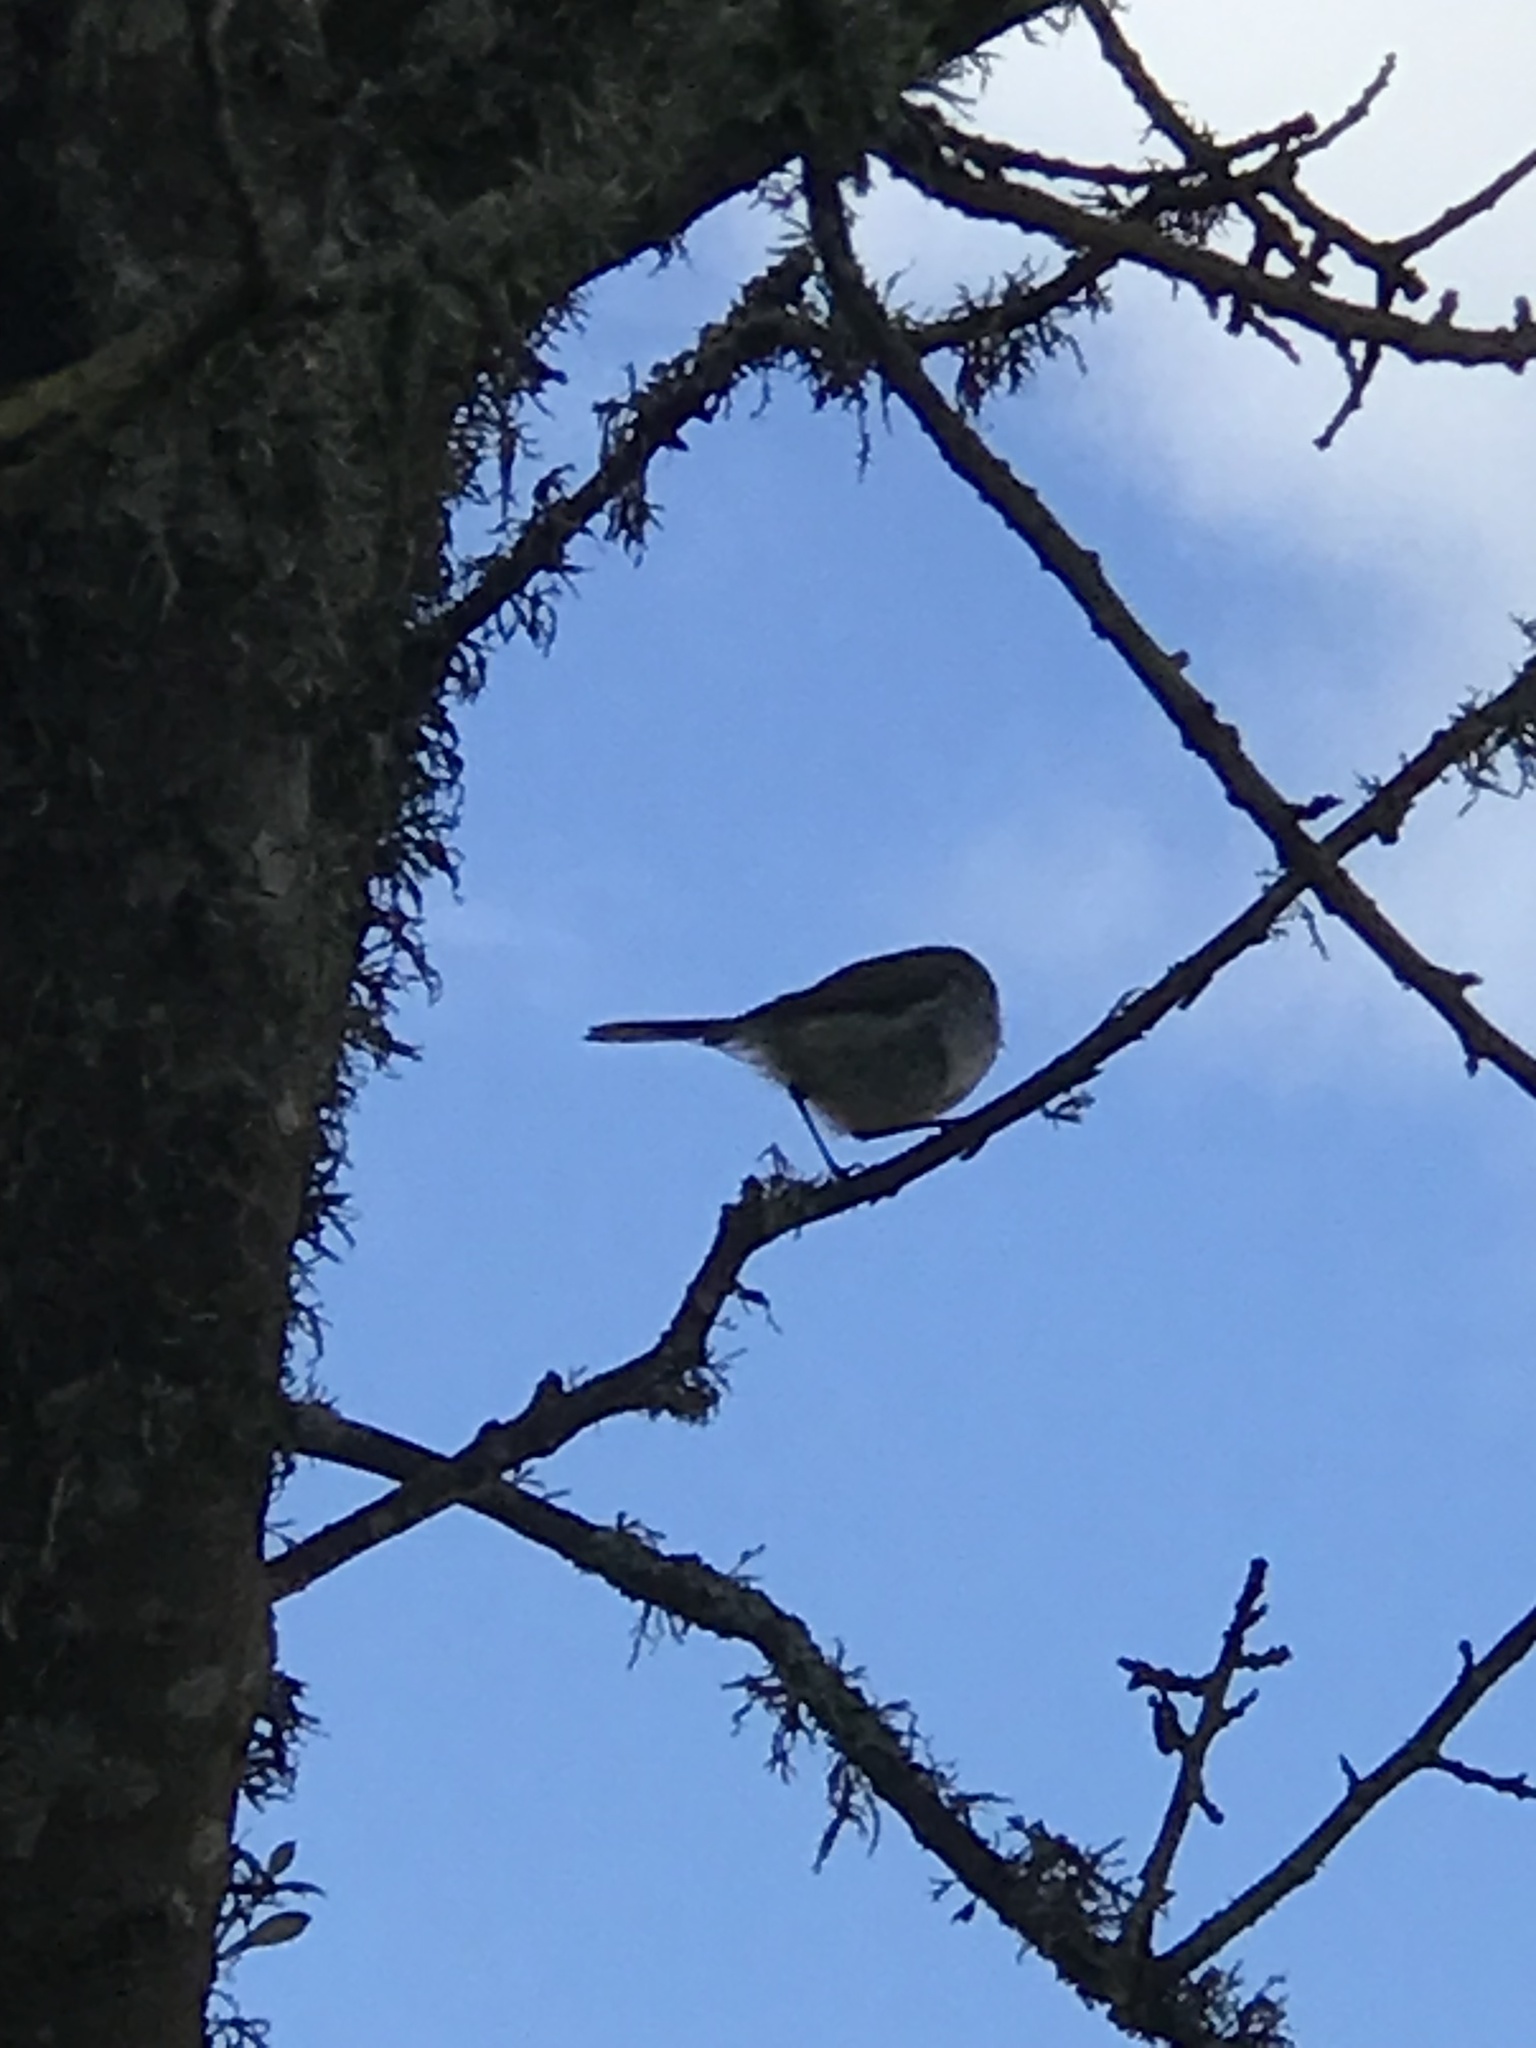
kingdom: Animalia
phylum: Chordata
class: Aves
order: Passeriformes
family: Acanthizidae
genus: Gerygone
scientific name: Gerygone igata
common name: Grey gerygone
